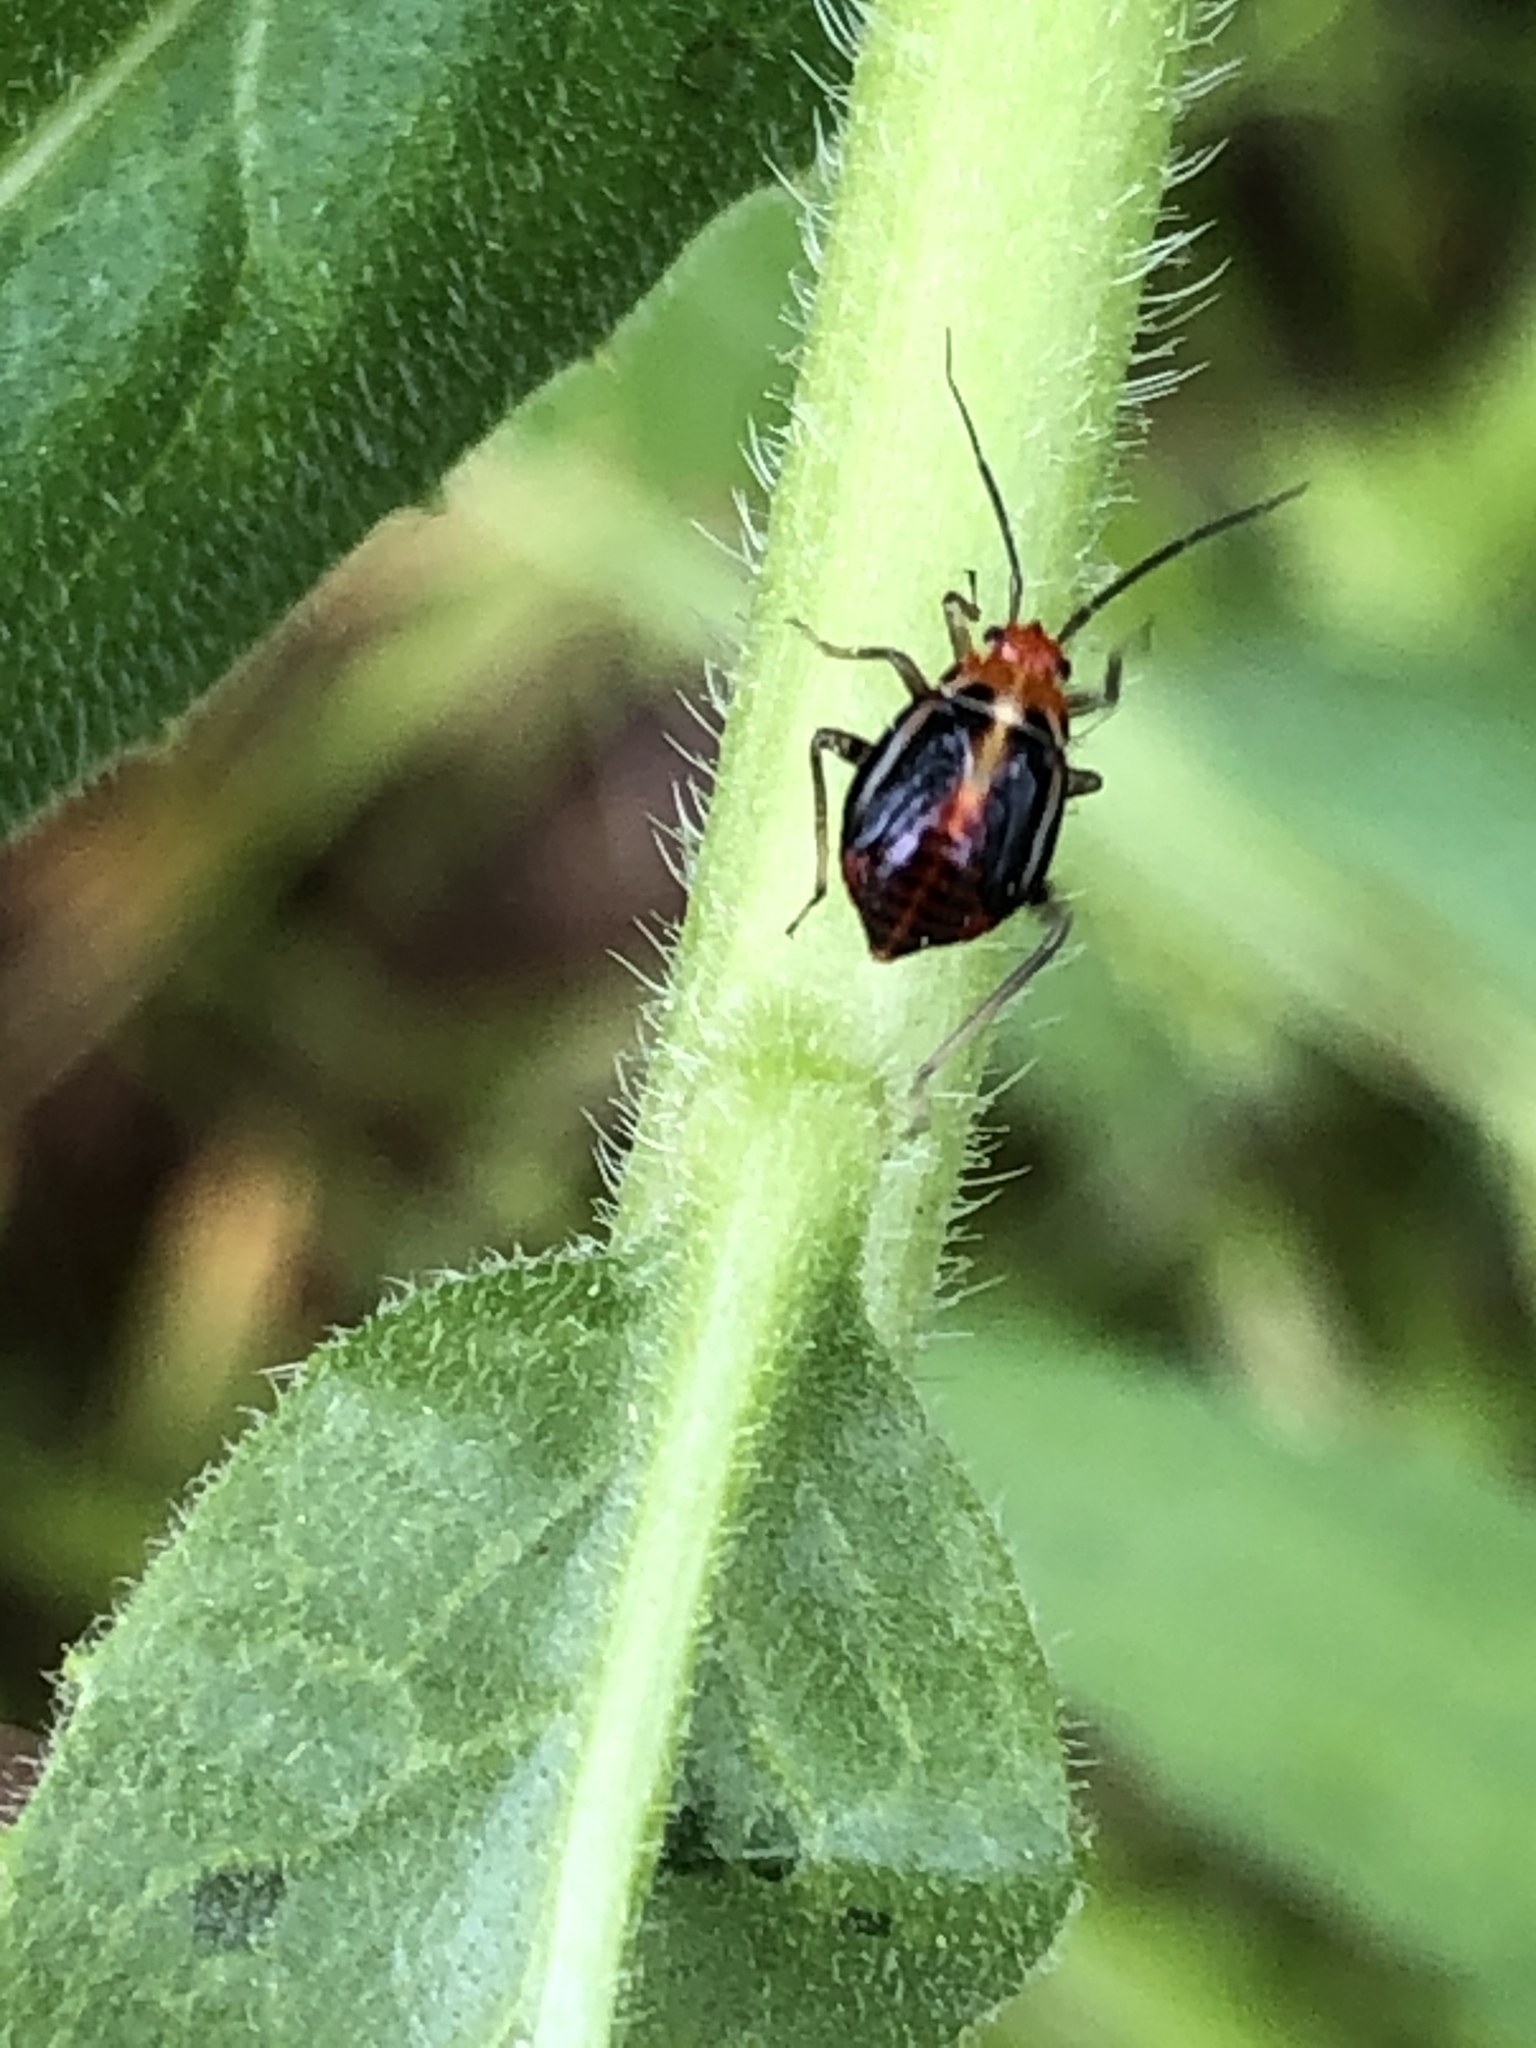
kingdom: Animalia
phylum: Arthropoda
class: Insecta
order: Hemiptera
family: Miridae
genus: Poecilocapsus
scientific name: Poecilocapsus lineatus
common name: Four-lined plant bug
